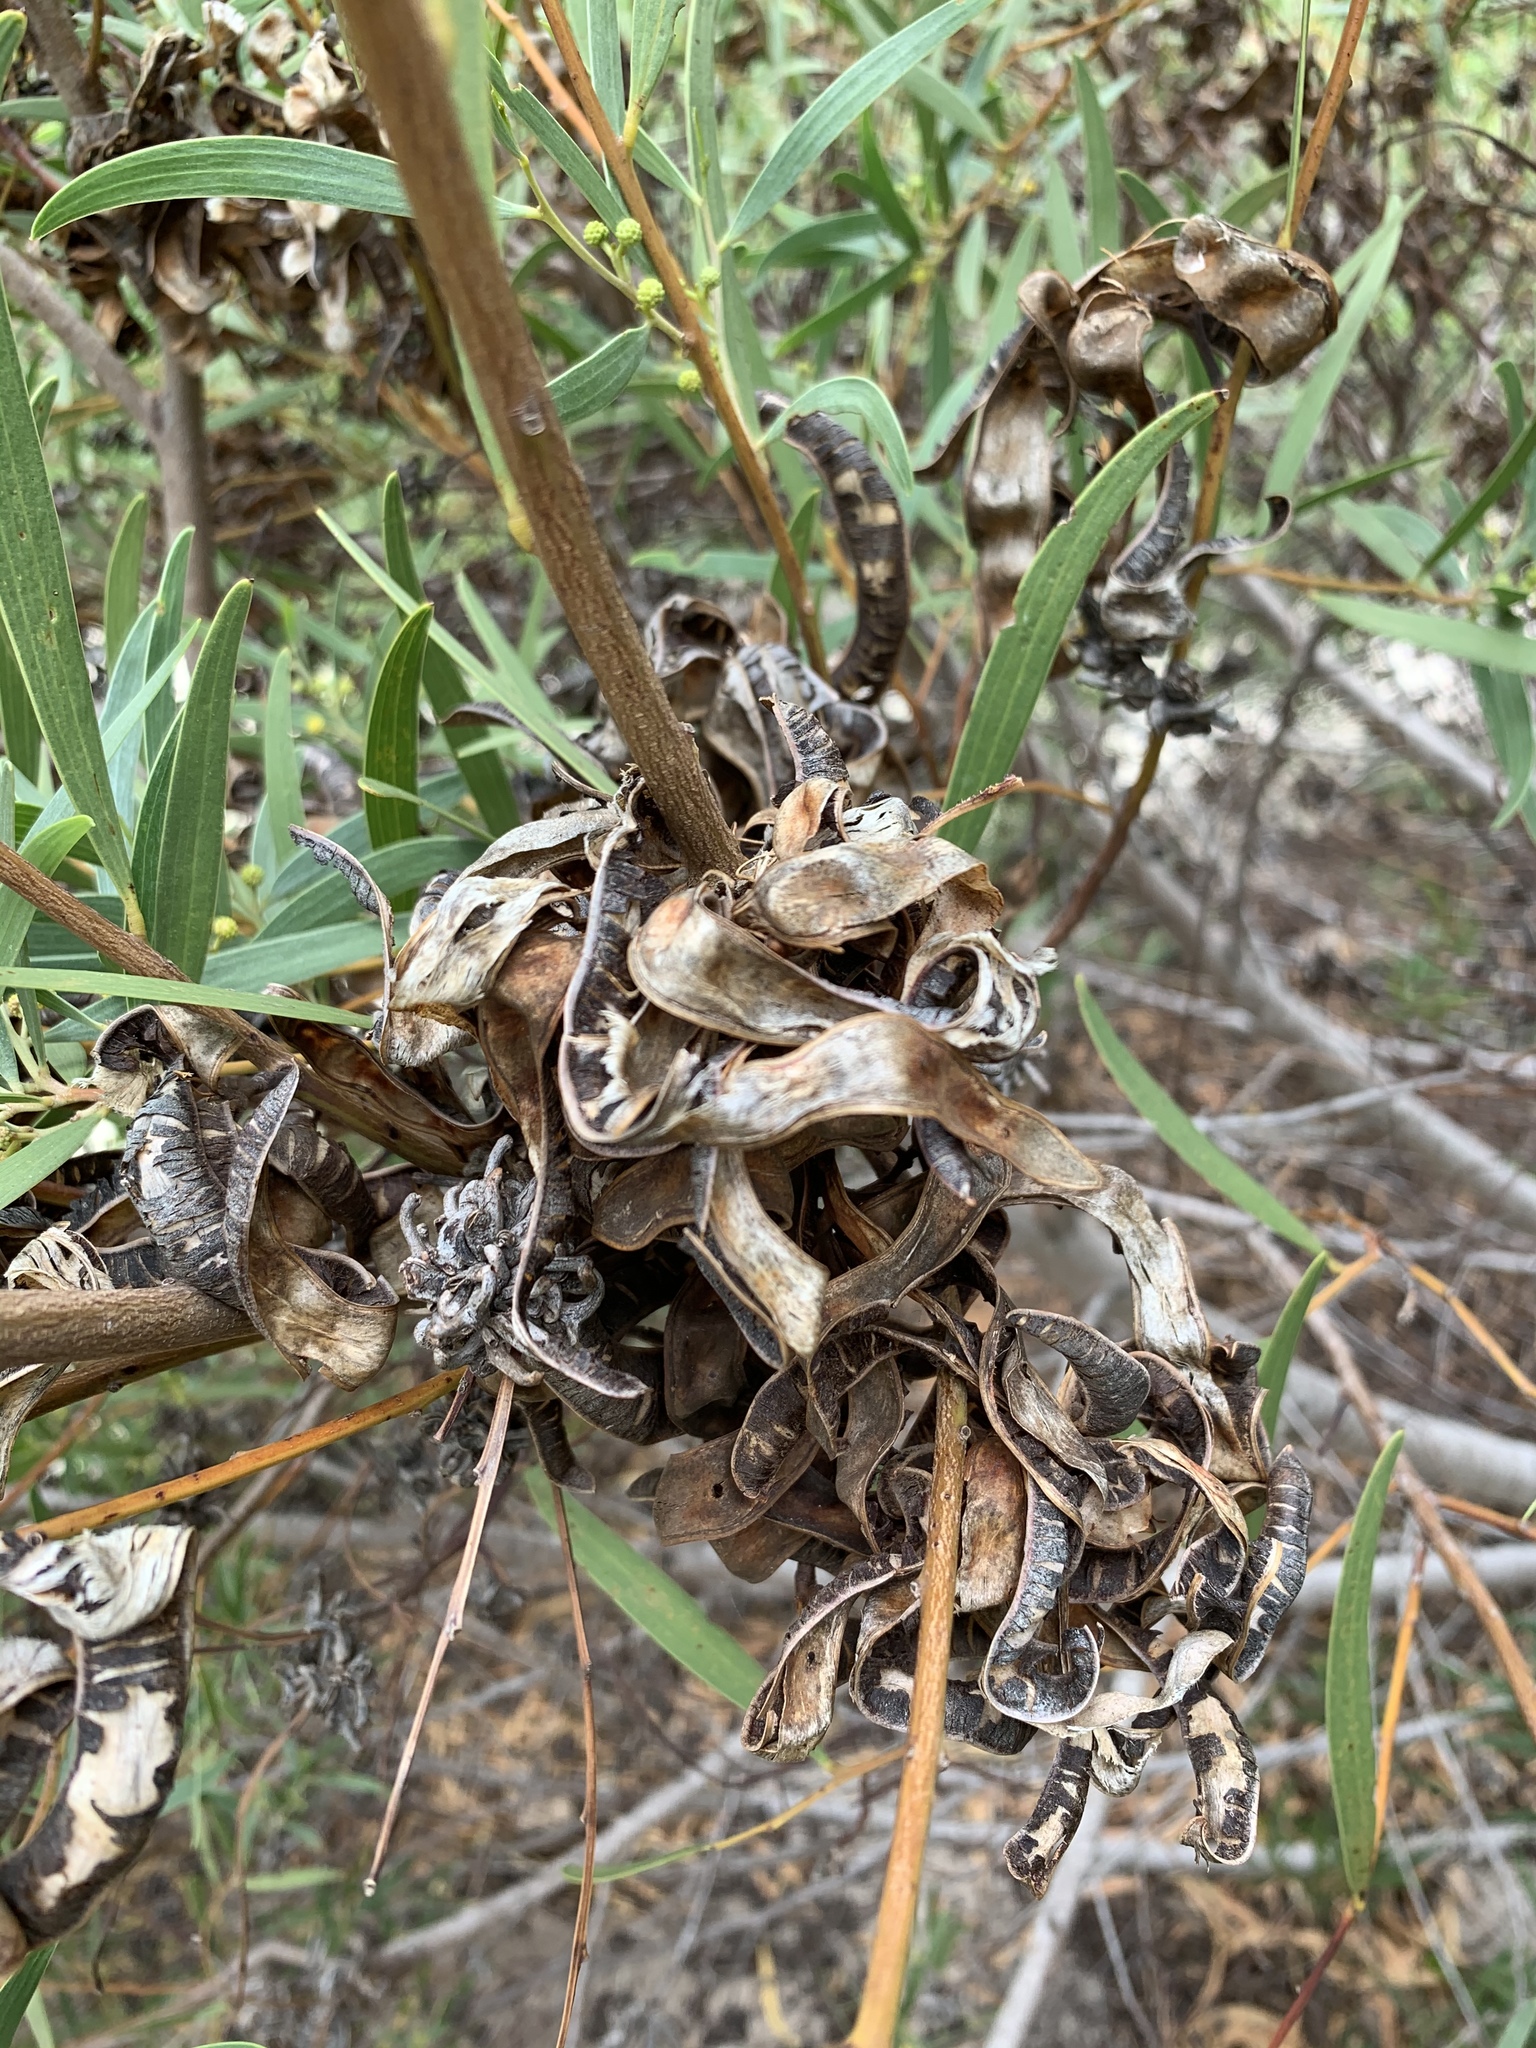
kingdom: Plantae
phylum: Tracheophyta
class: Magnoliopsida
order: Fabales
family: Fabaceae
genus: Acacia
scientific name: Acacia cyclops
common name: Coastal wattle
